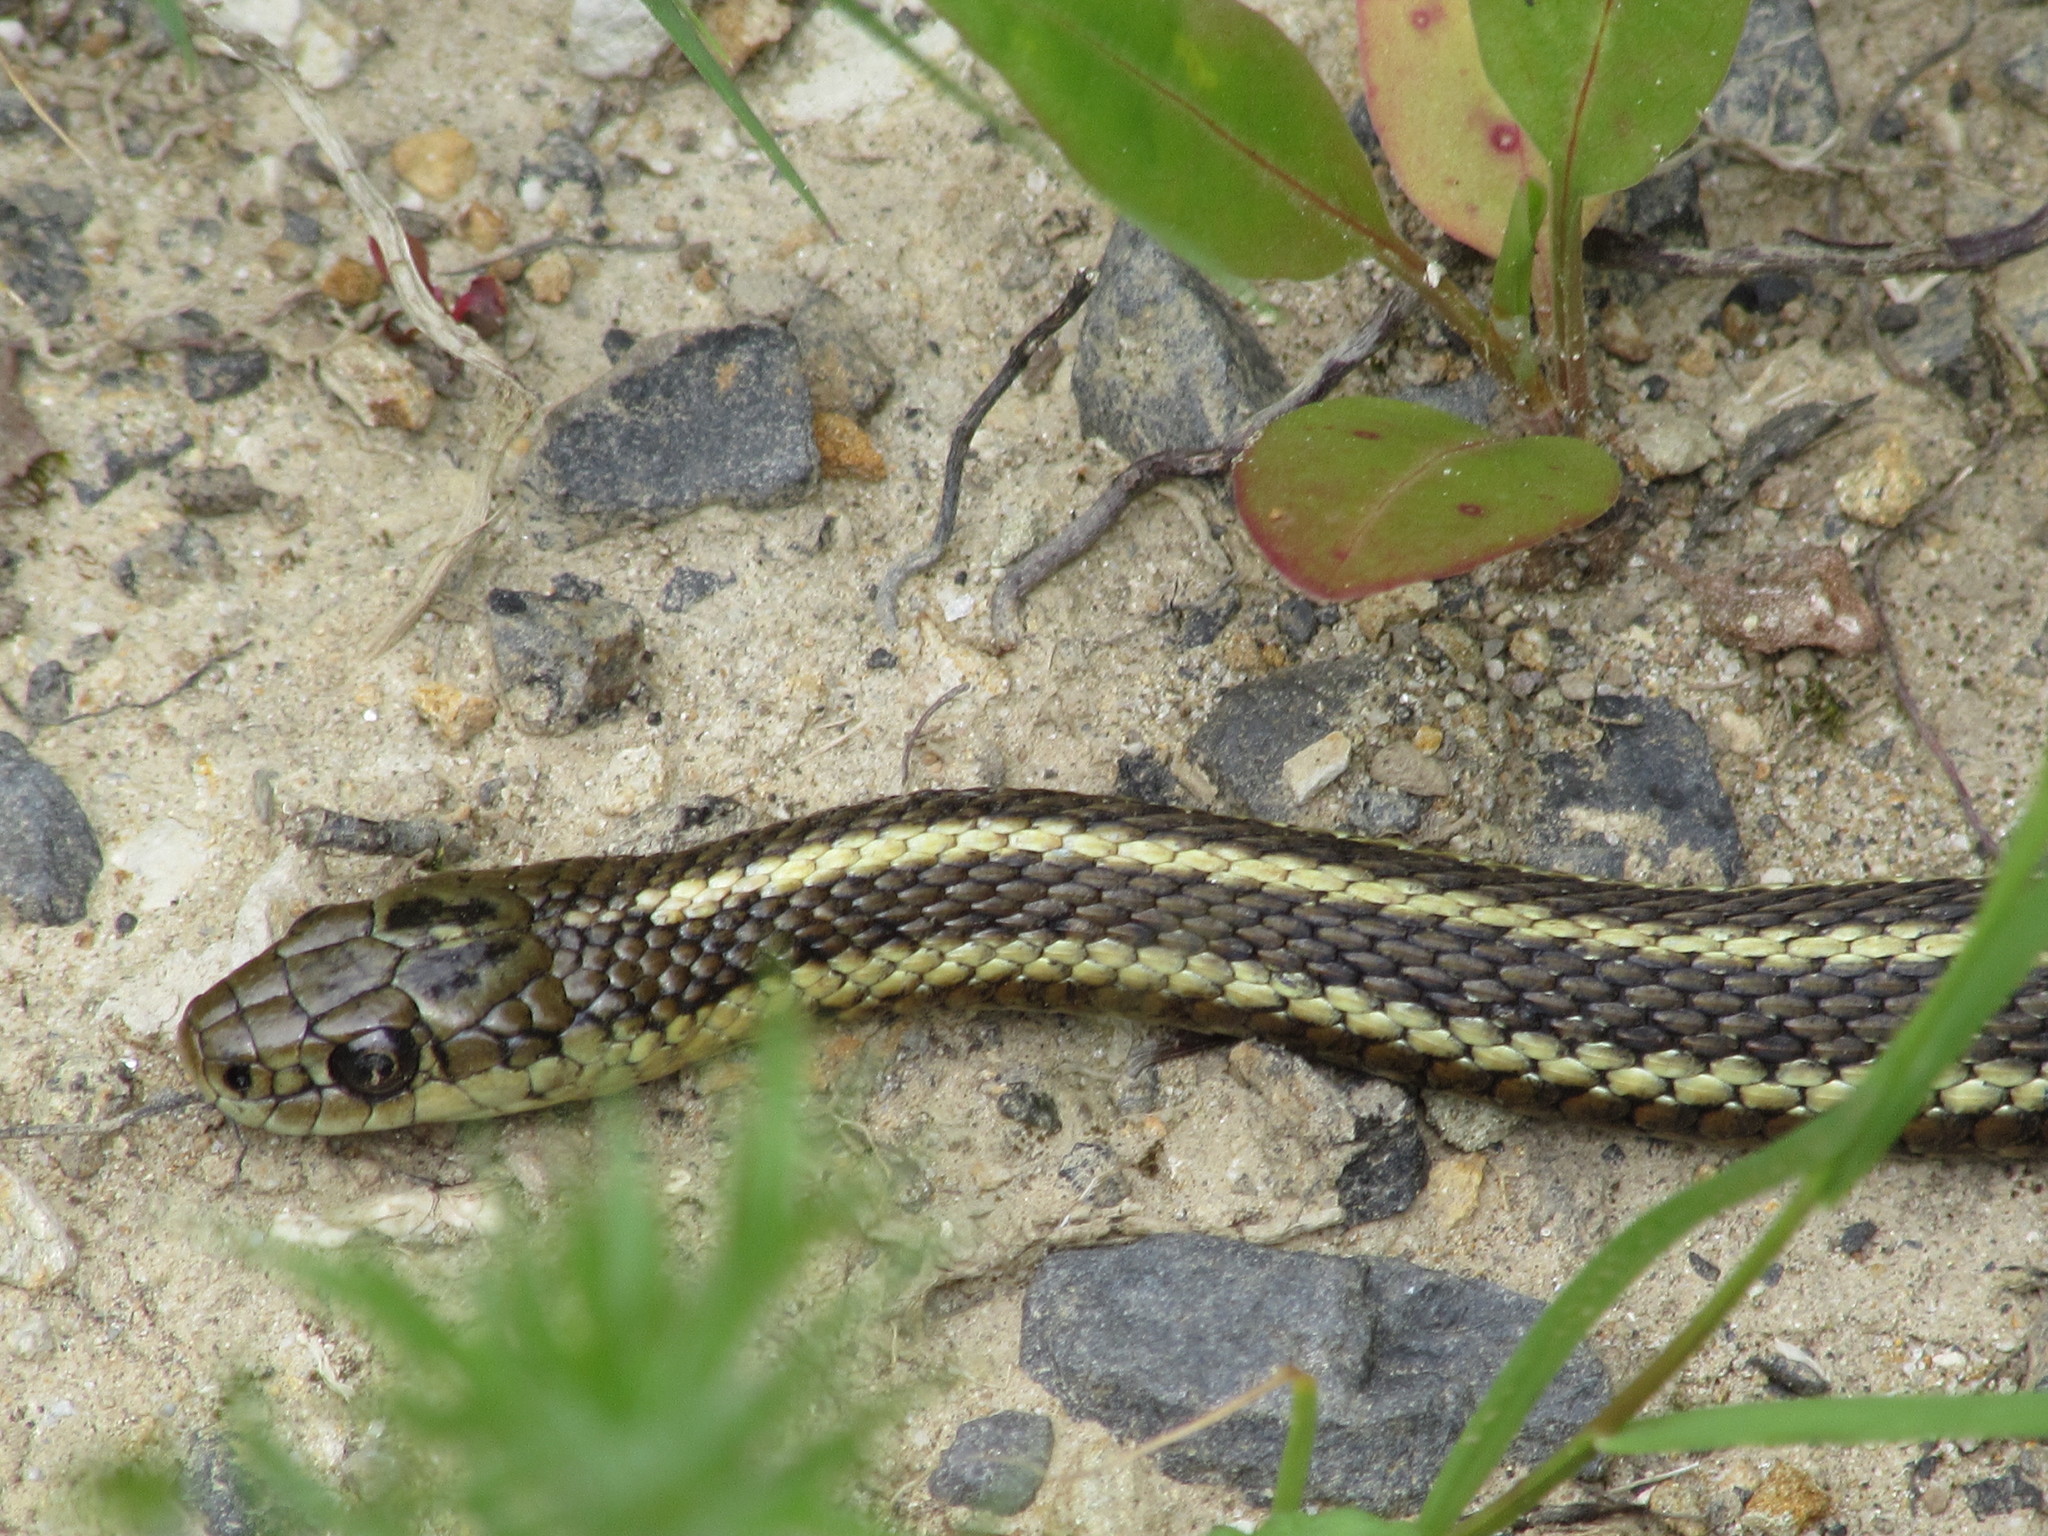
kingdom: Animalia
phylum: Chordata
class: Squamata
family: Colubridae
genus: Thamnophis
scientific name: Thamnophis ordinoides
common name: Northwestern garter snake
